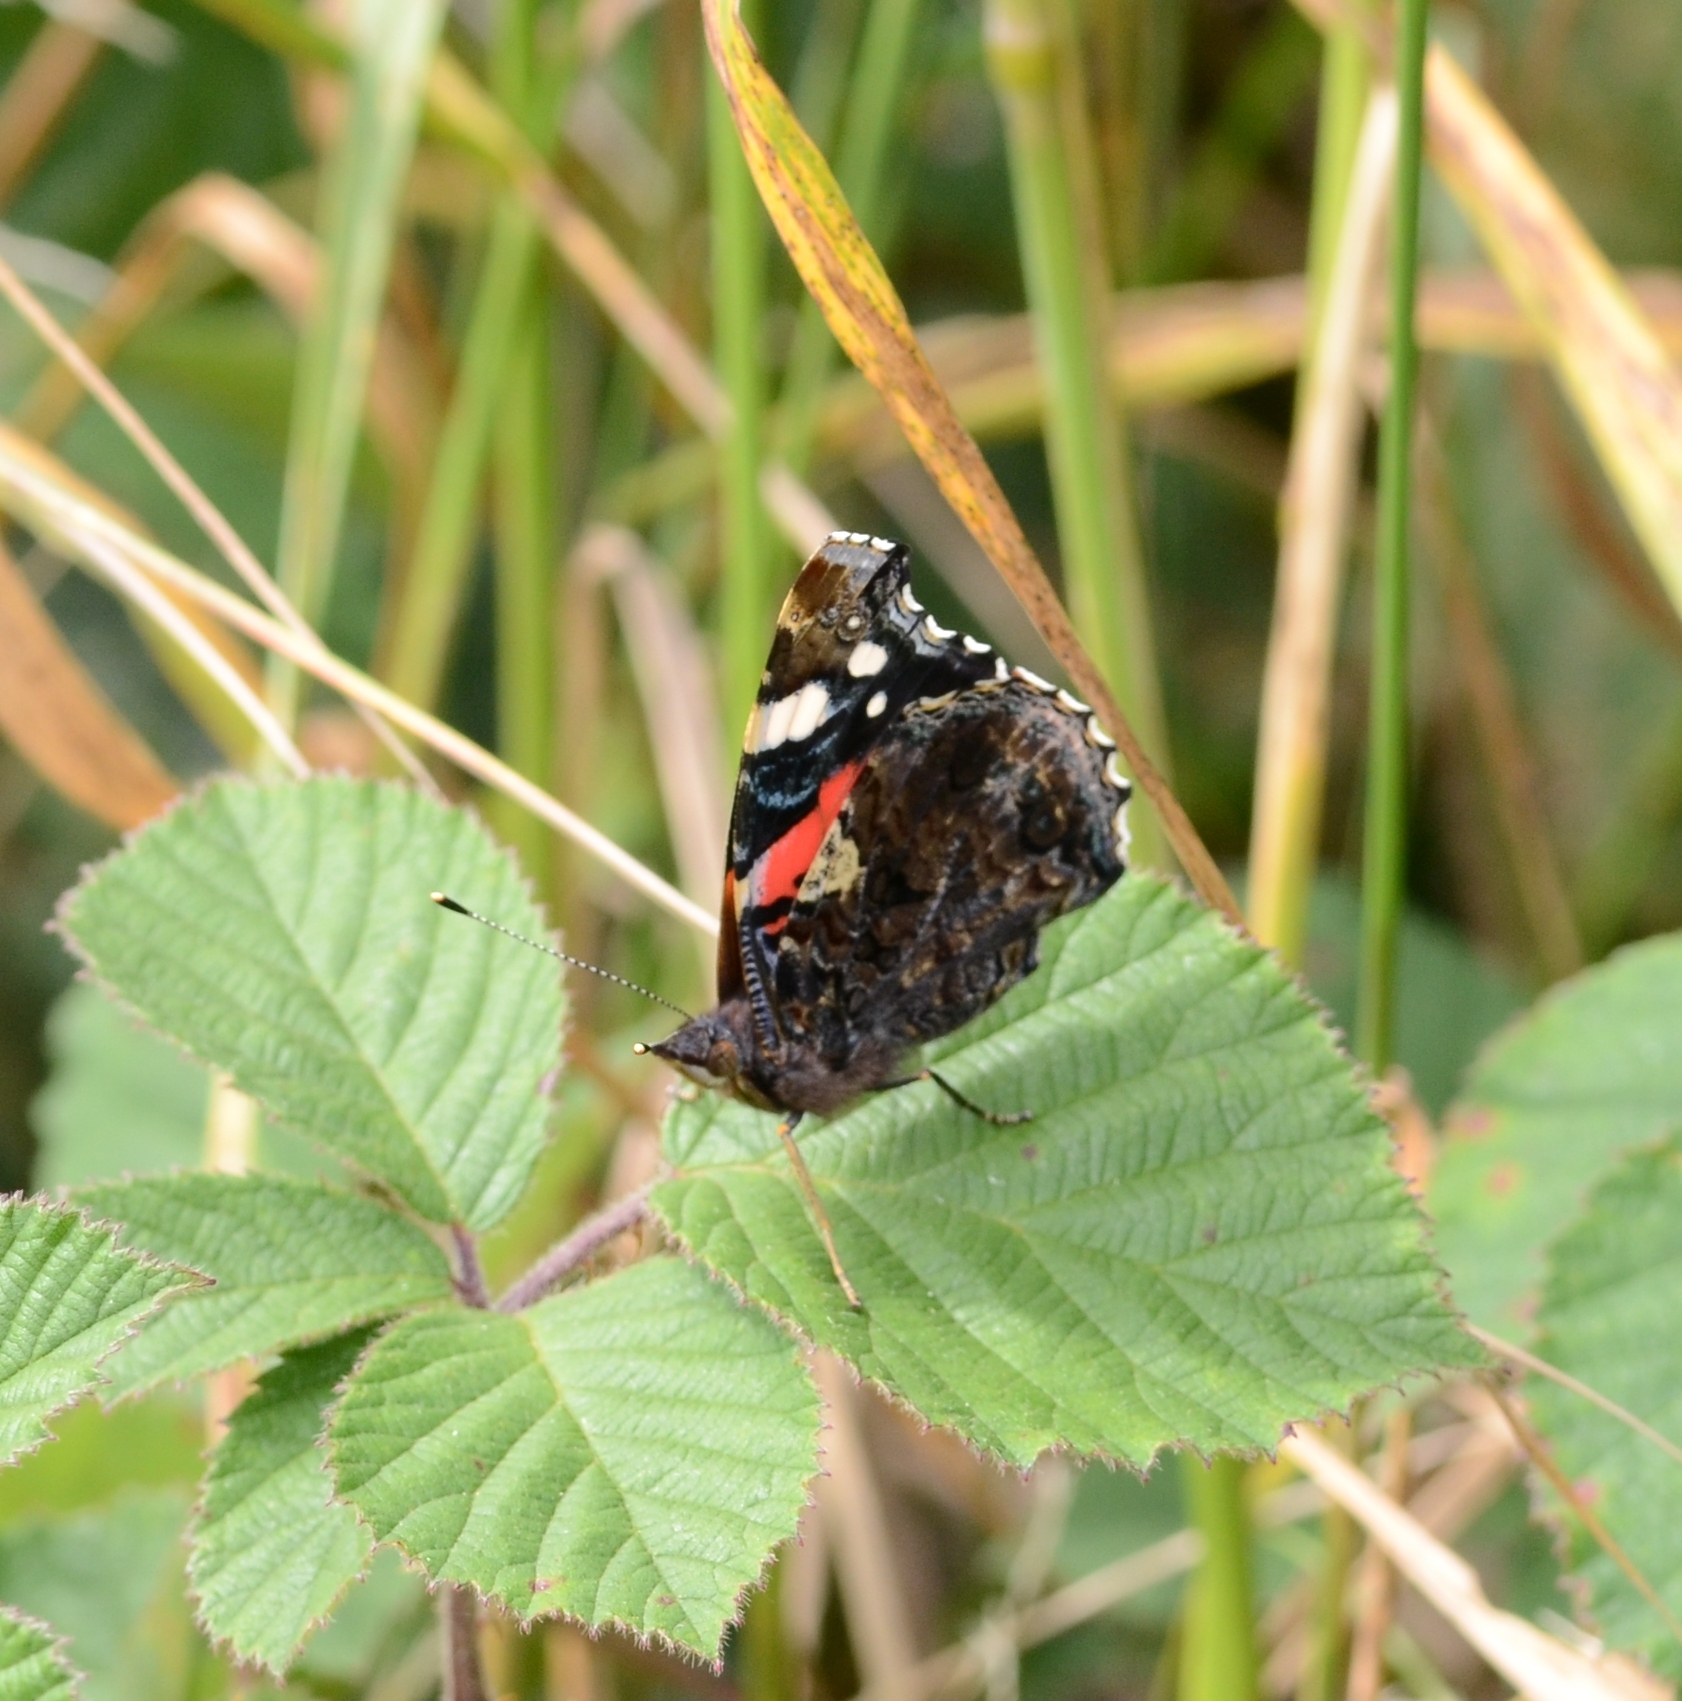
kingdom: Animalia
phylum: Arthropoda
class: Insecta
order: Lepidoptera
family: Nymphalidae
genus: Vanessa
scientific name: Vanessa atalanta
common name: Red admiral
